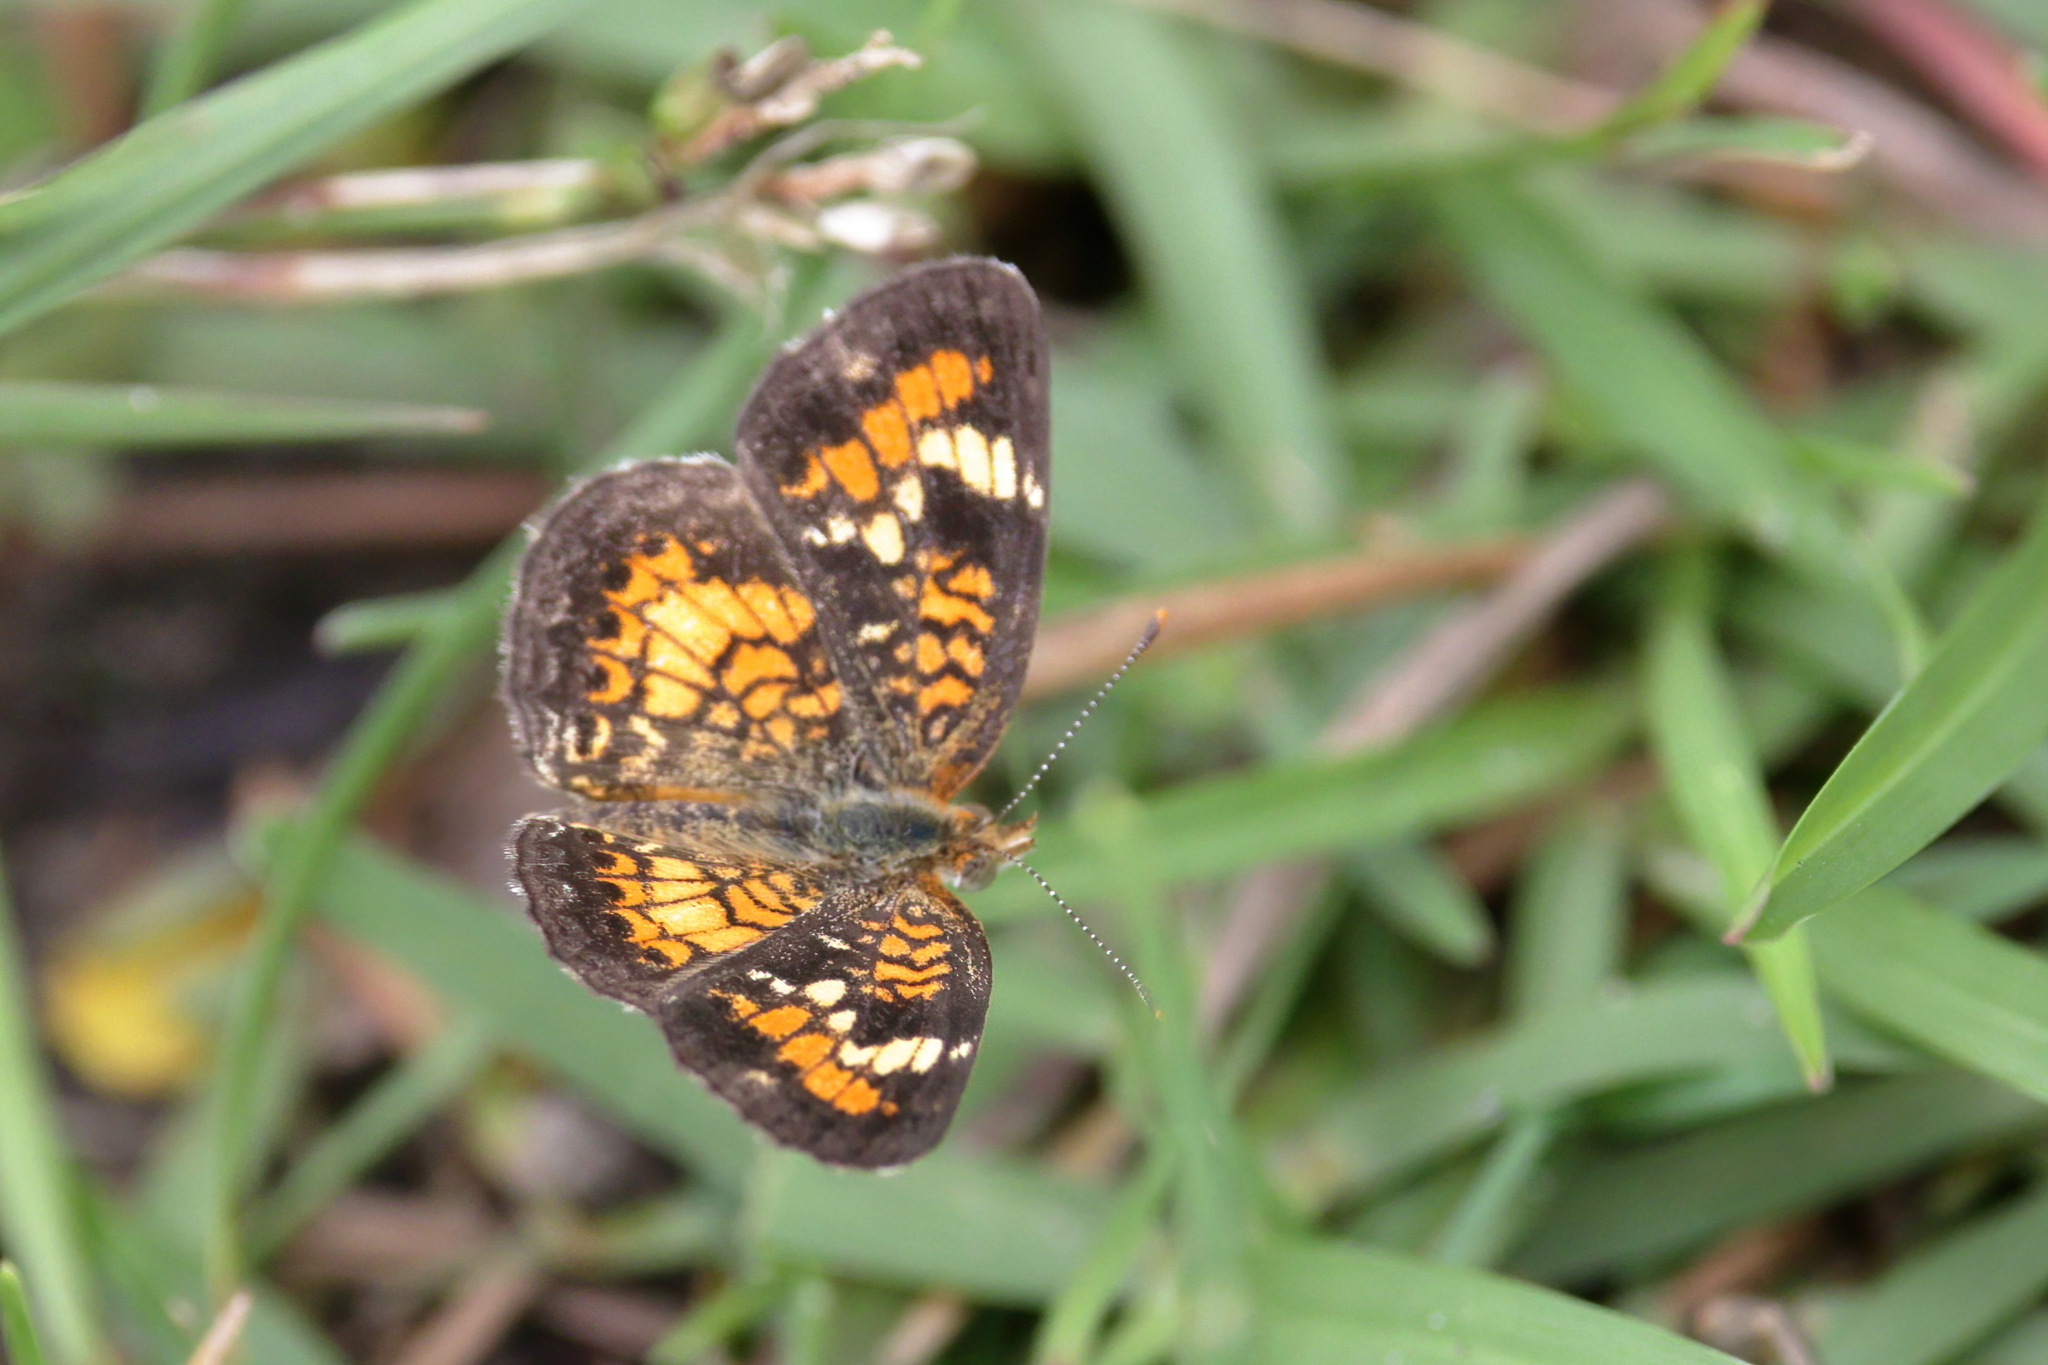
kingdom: Animalia
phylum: Arthropoda
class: Insecta
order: Lepidoptera
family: Nymphalidae
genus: Phyciodes
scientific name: Phyciodes phaon
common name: Phaon crescent
